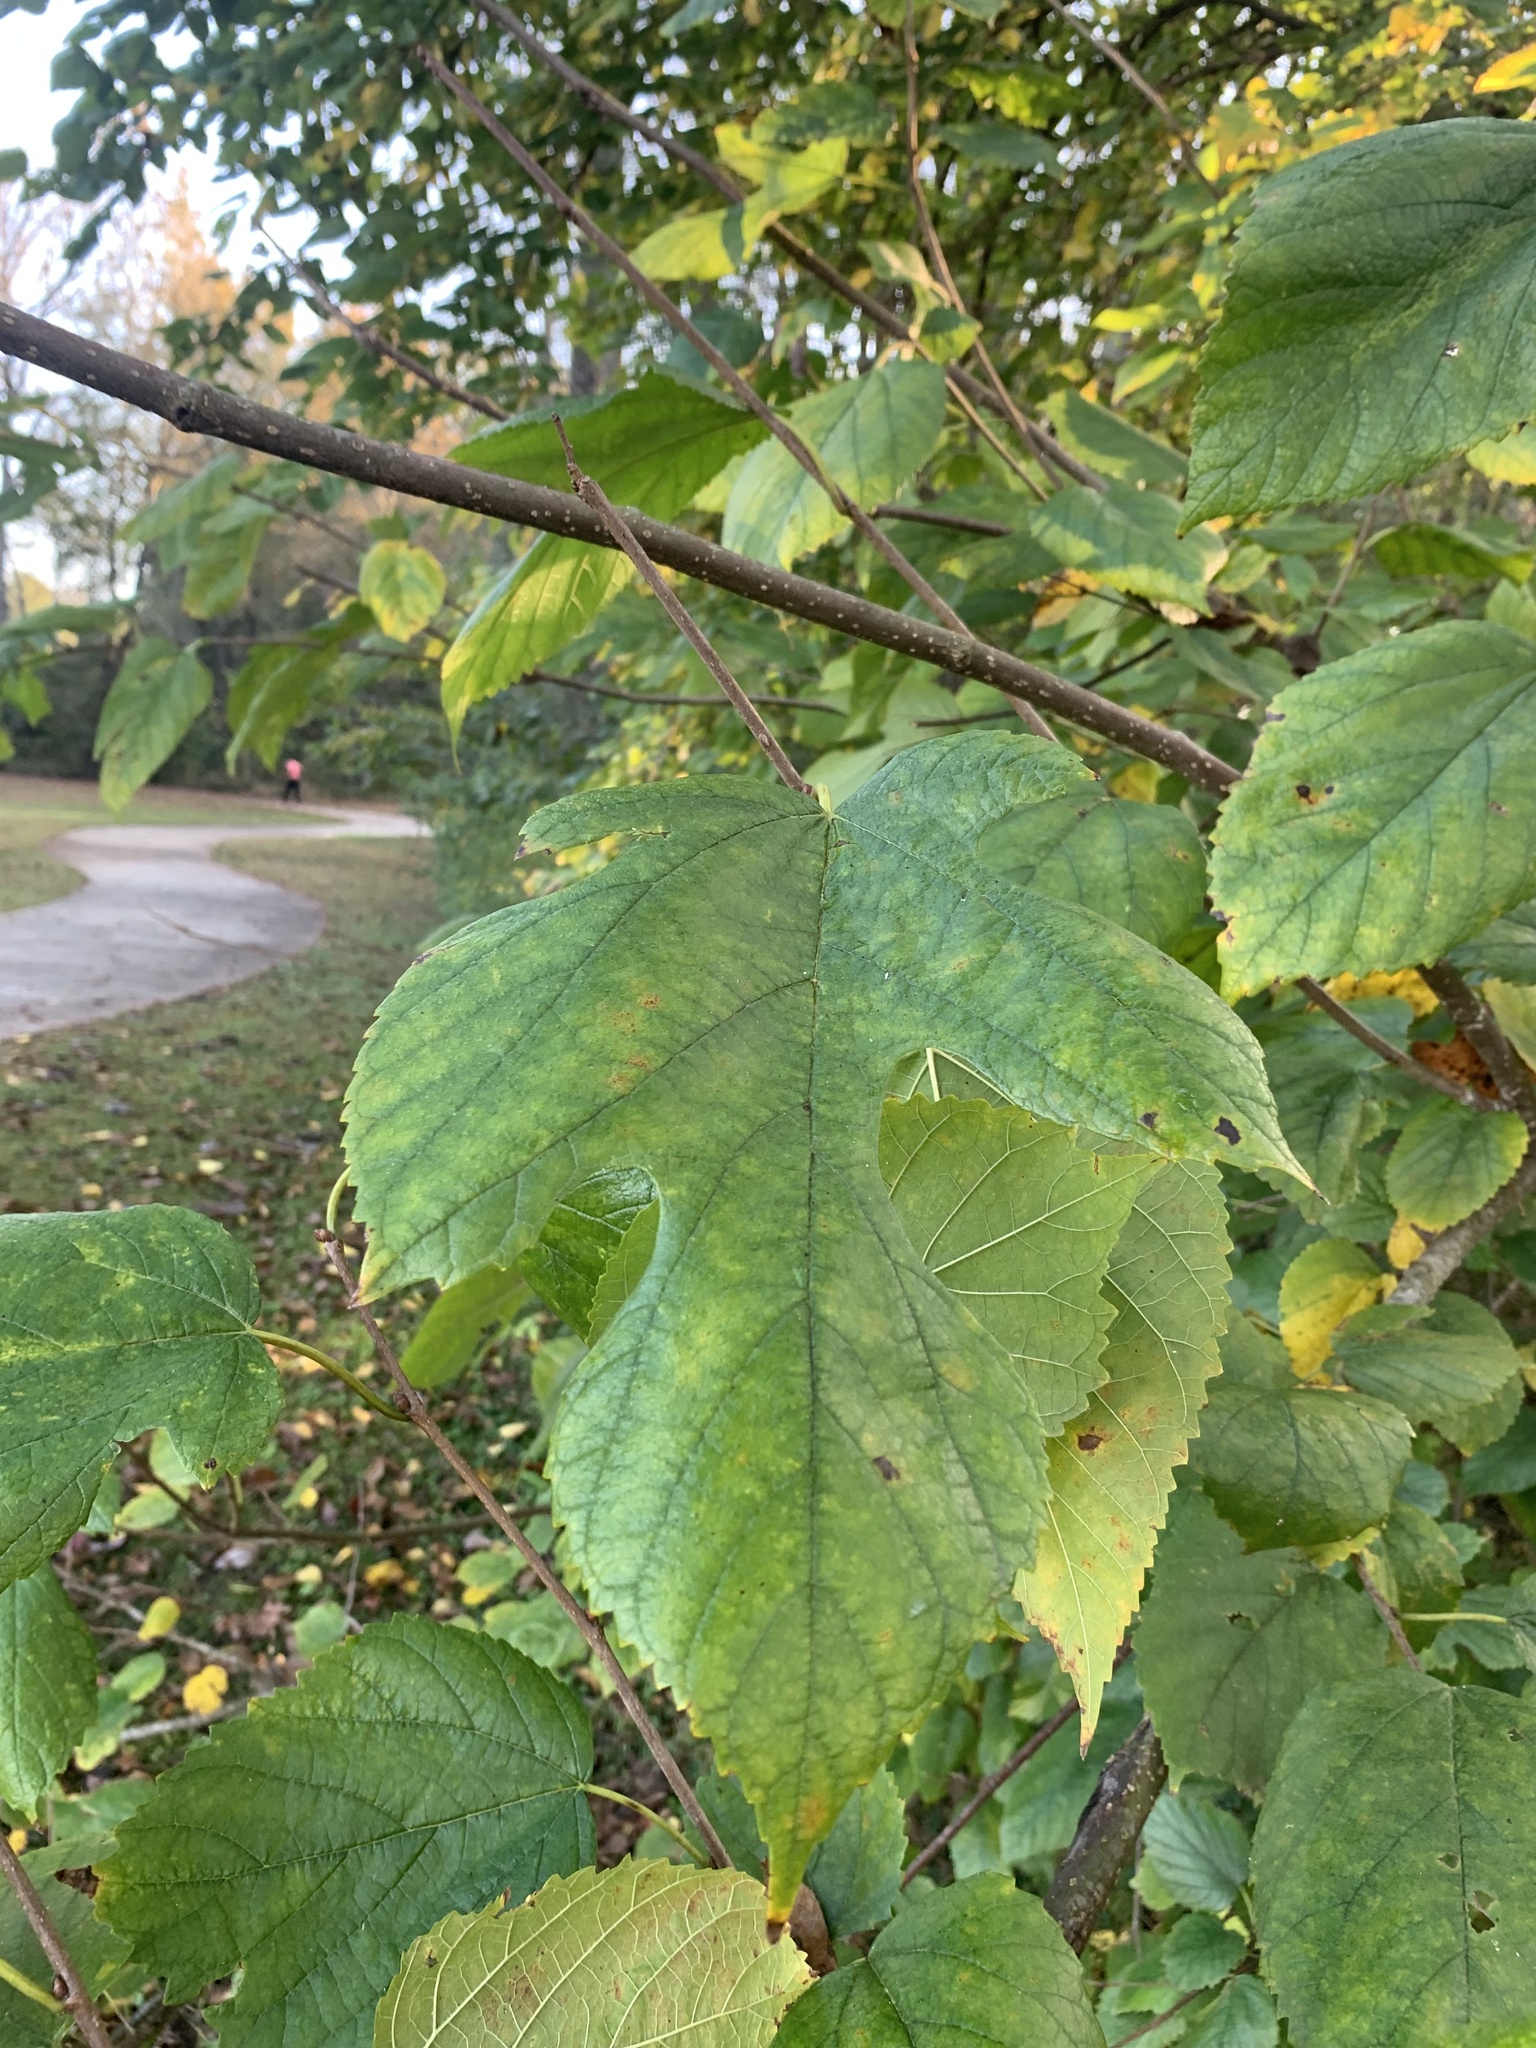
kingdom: Plantae
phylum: Tracheophyta
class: Magnoliopsida
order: Rosales
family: Moraceae
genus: Morus
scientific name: Morus rubra
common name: Red mulberry
